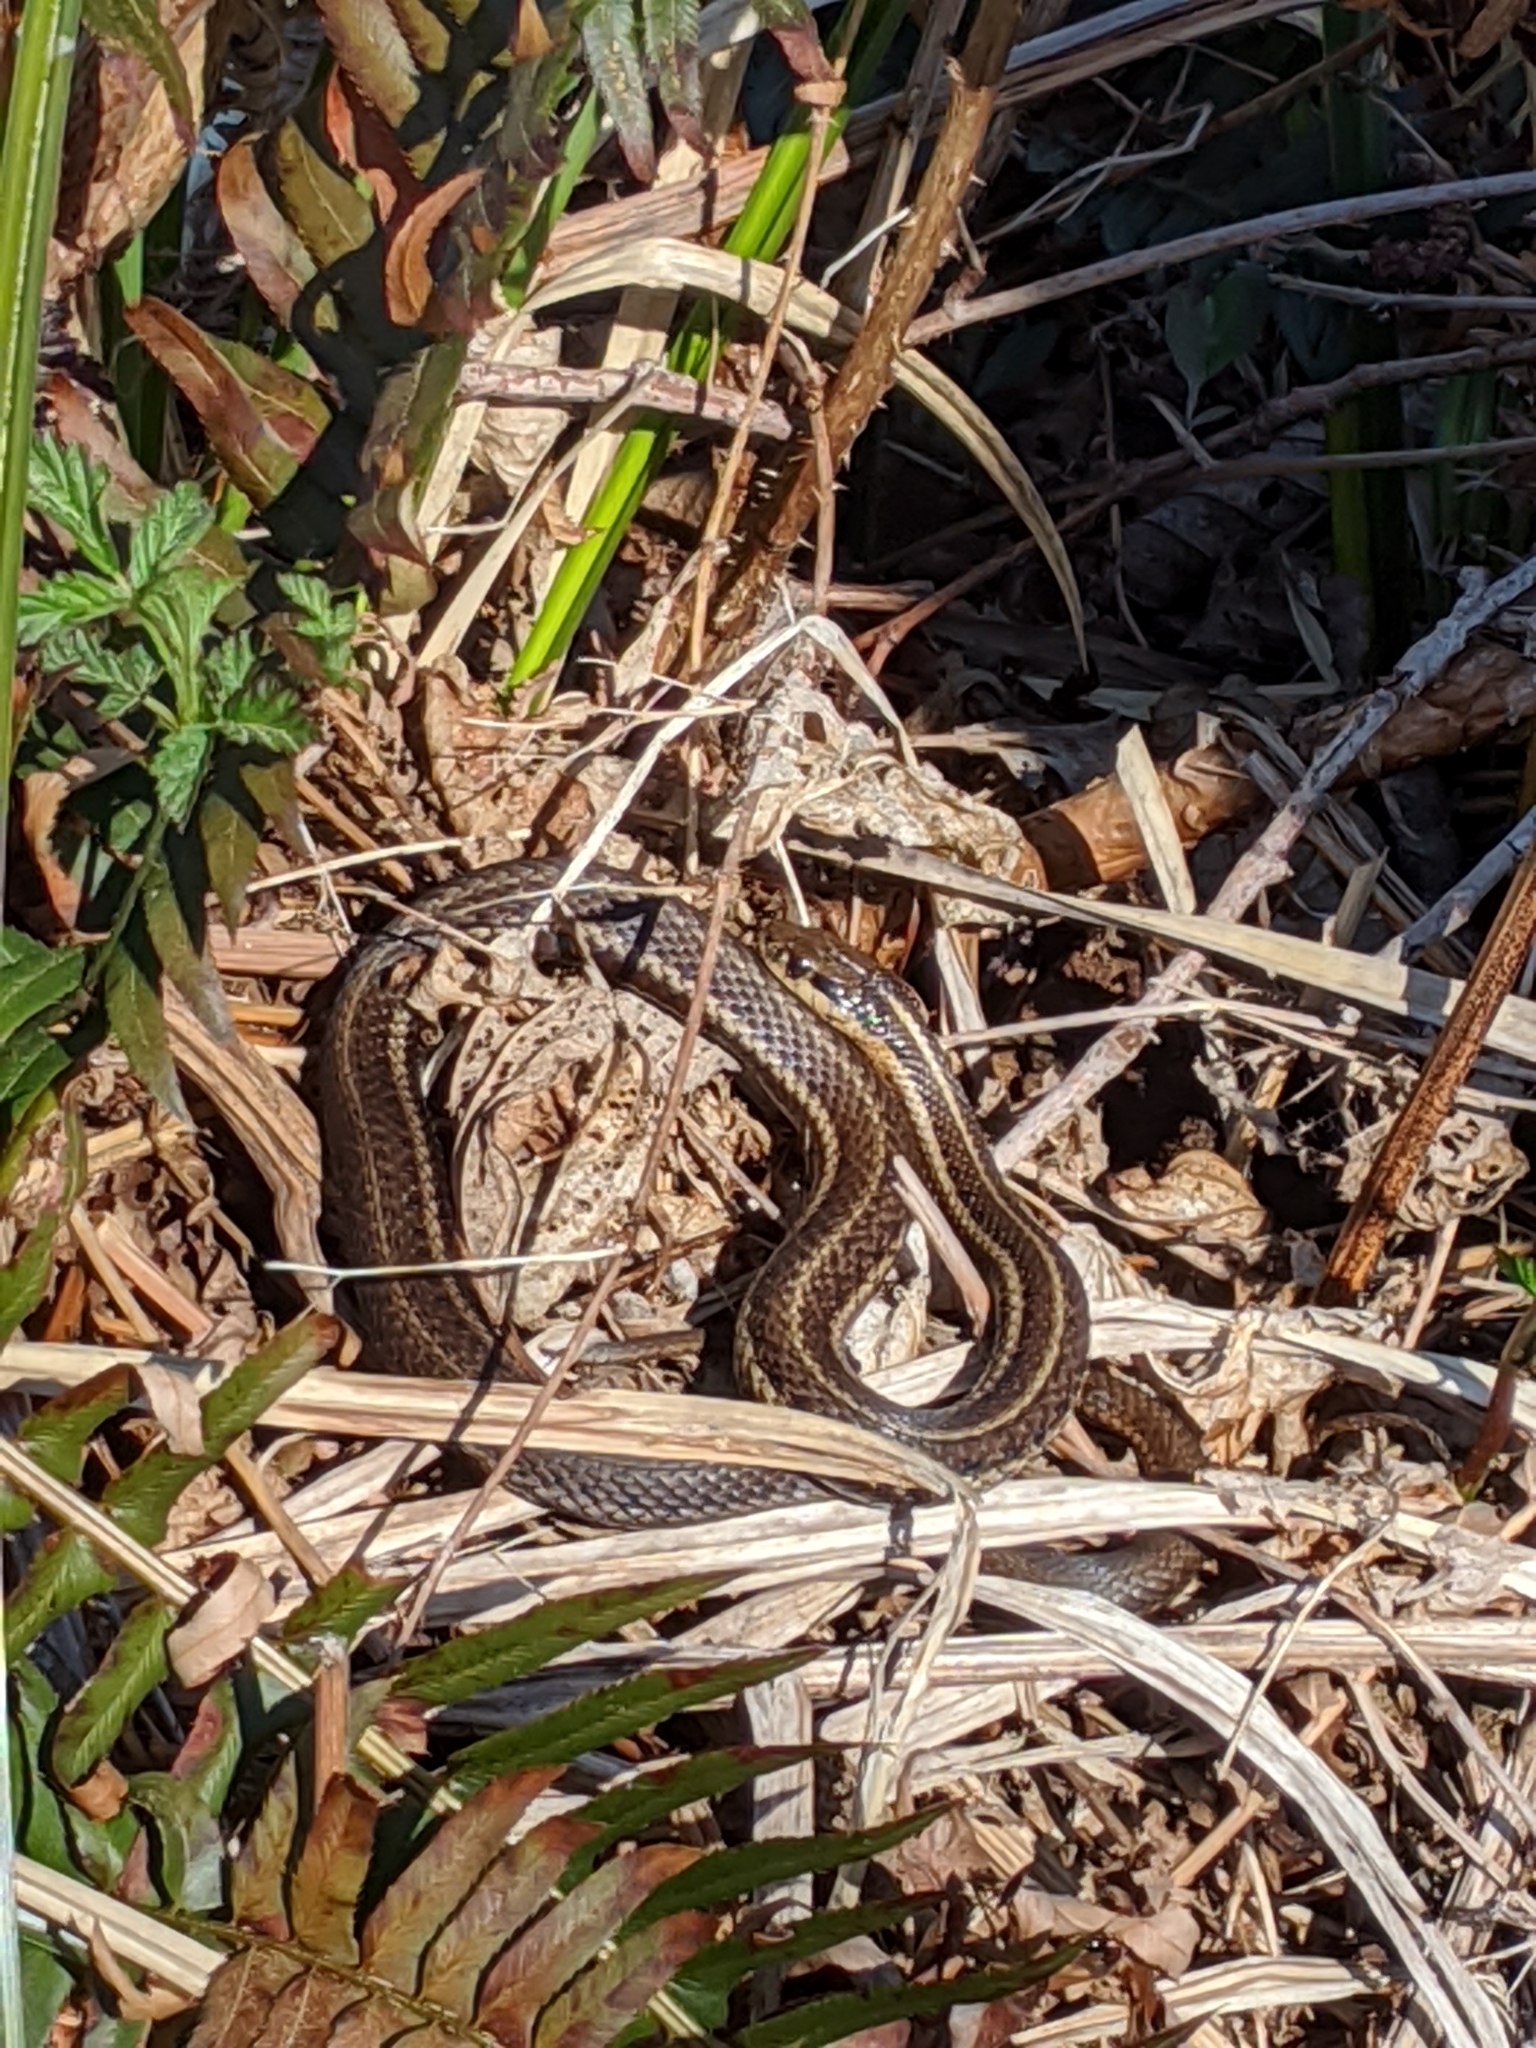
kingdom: Animalia
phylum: Chordata
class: Squamata
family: Colubridae
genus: Thamnophis
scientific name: Thamnophis ordinoides
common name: Northwestern garter snake
